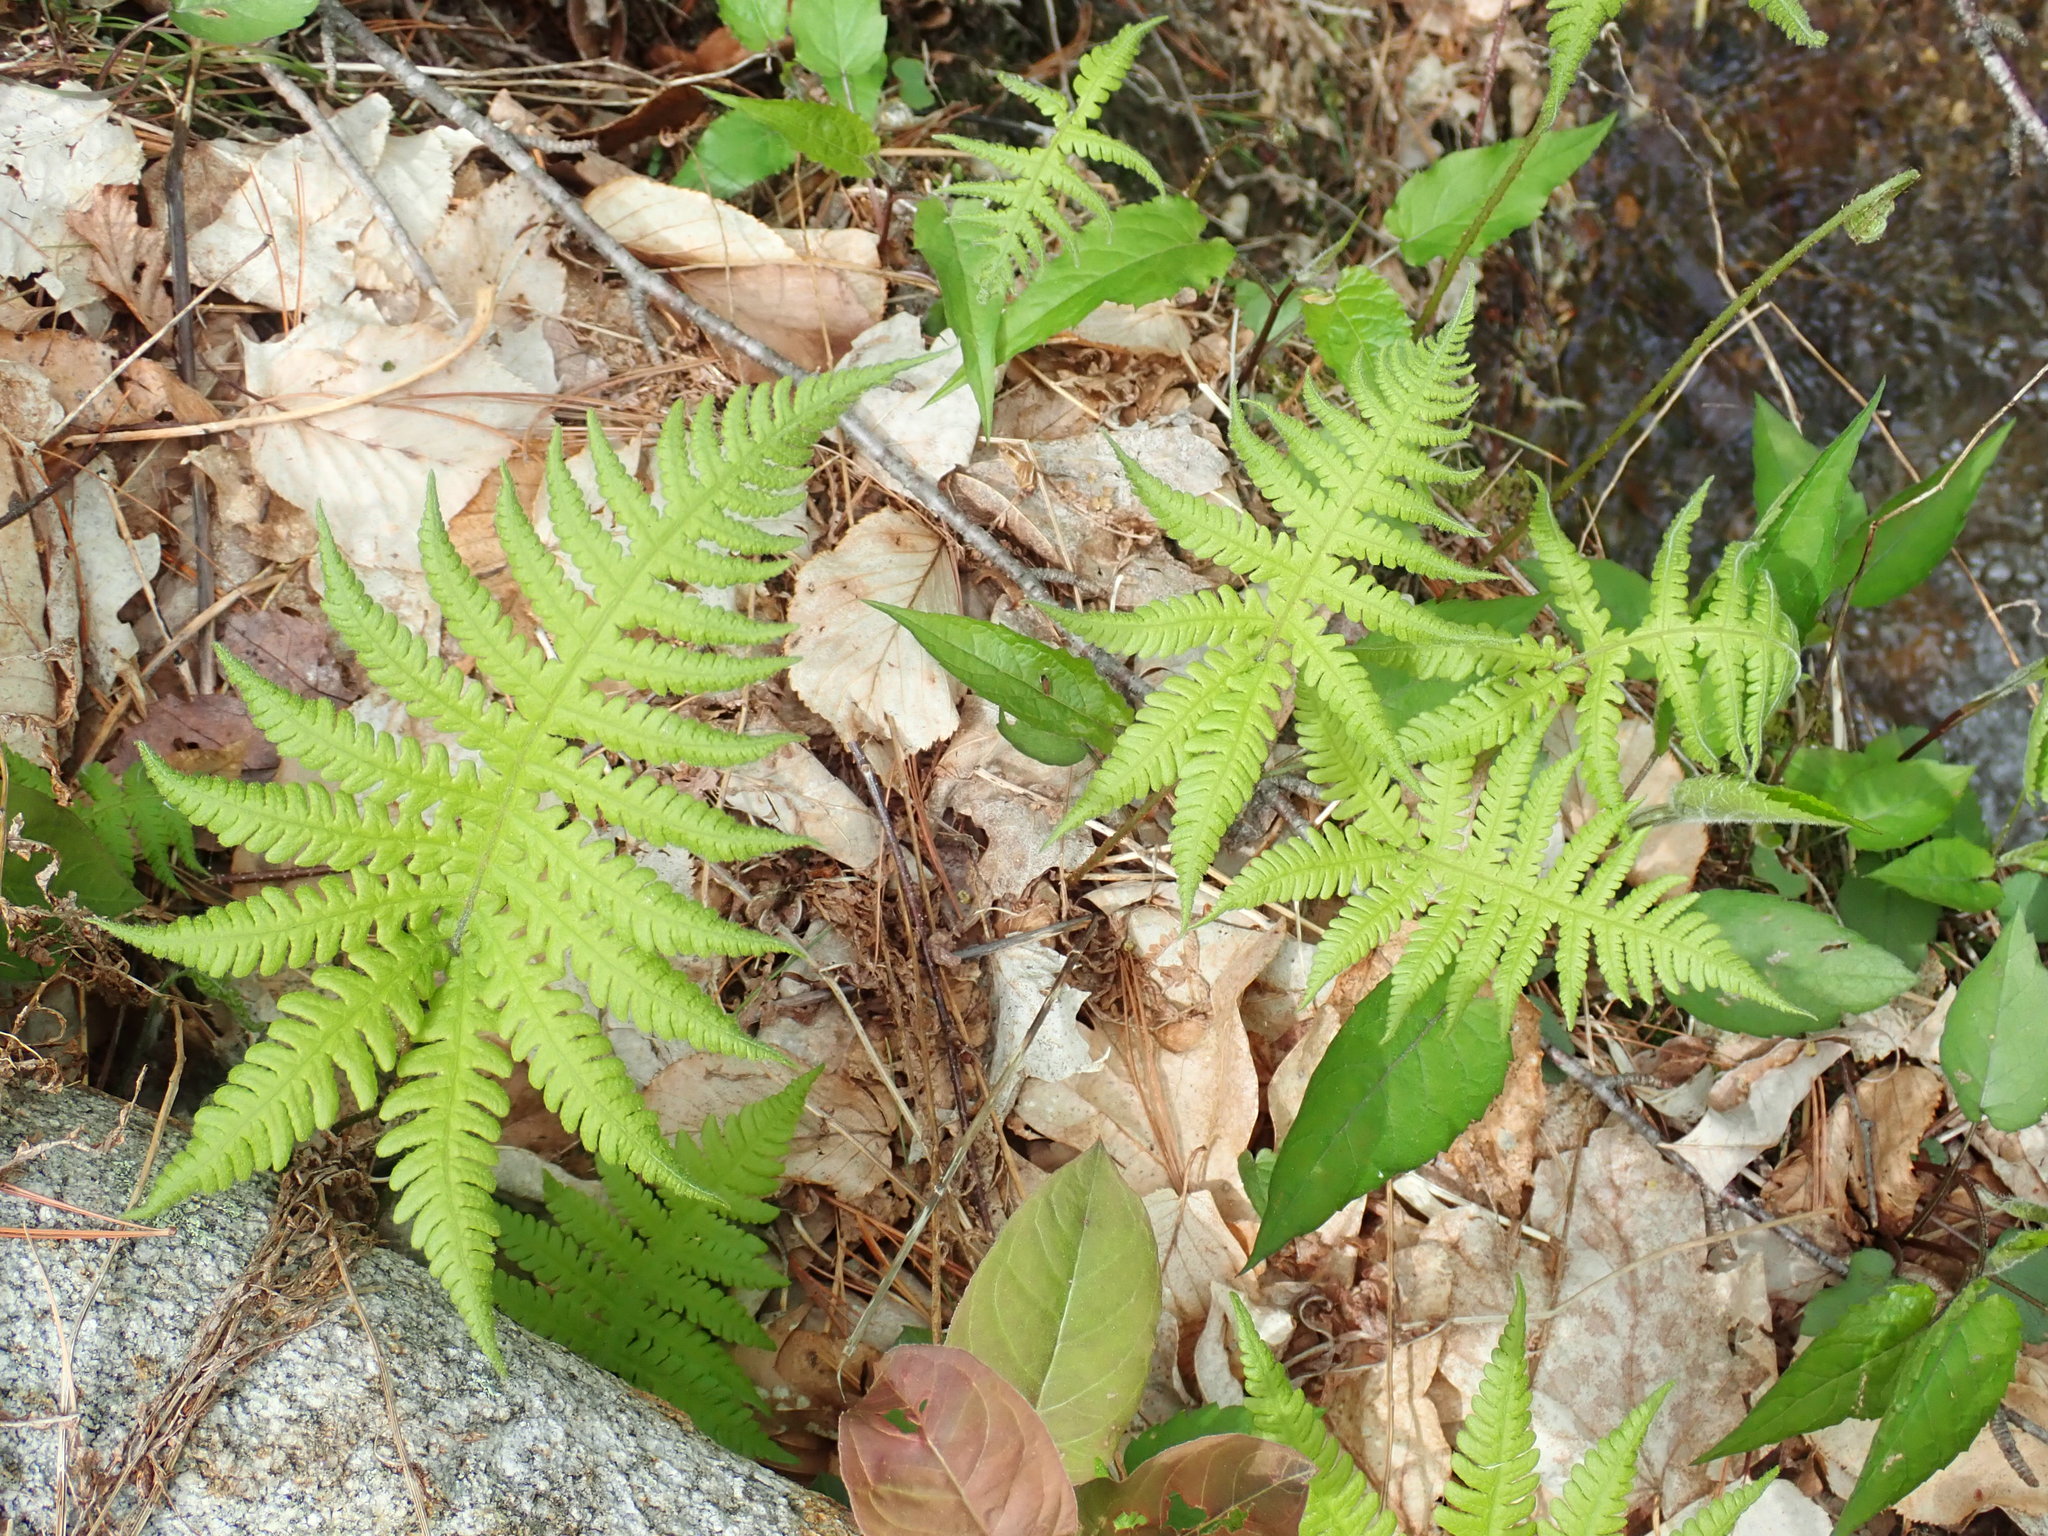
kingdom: Plantae
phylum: Tracheophyta
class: Polypodiopsida
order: Polypodiales
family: Thelypteridaceae
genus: Phegopteris
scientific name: Phegopteris connectilis
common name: Beech fern
